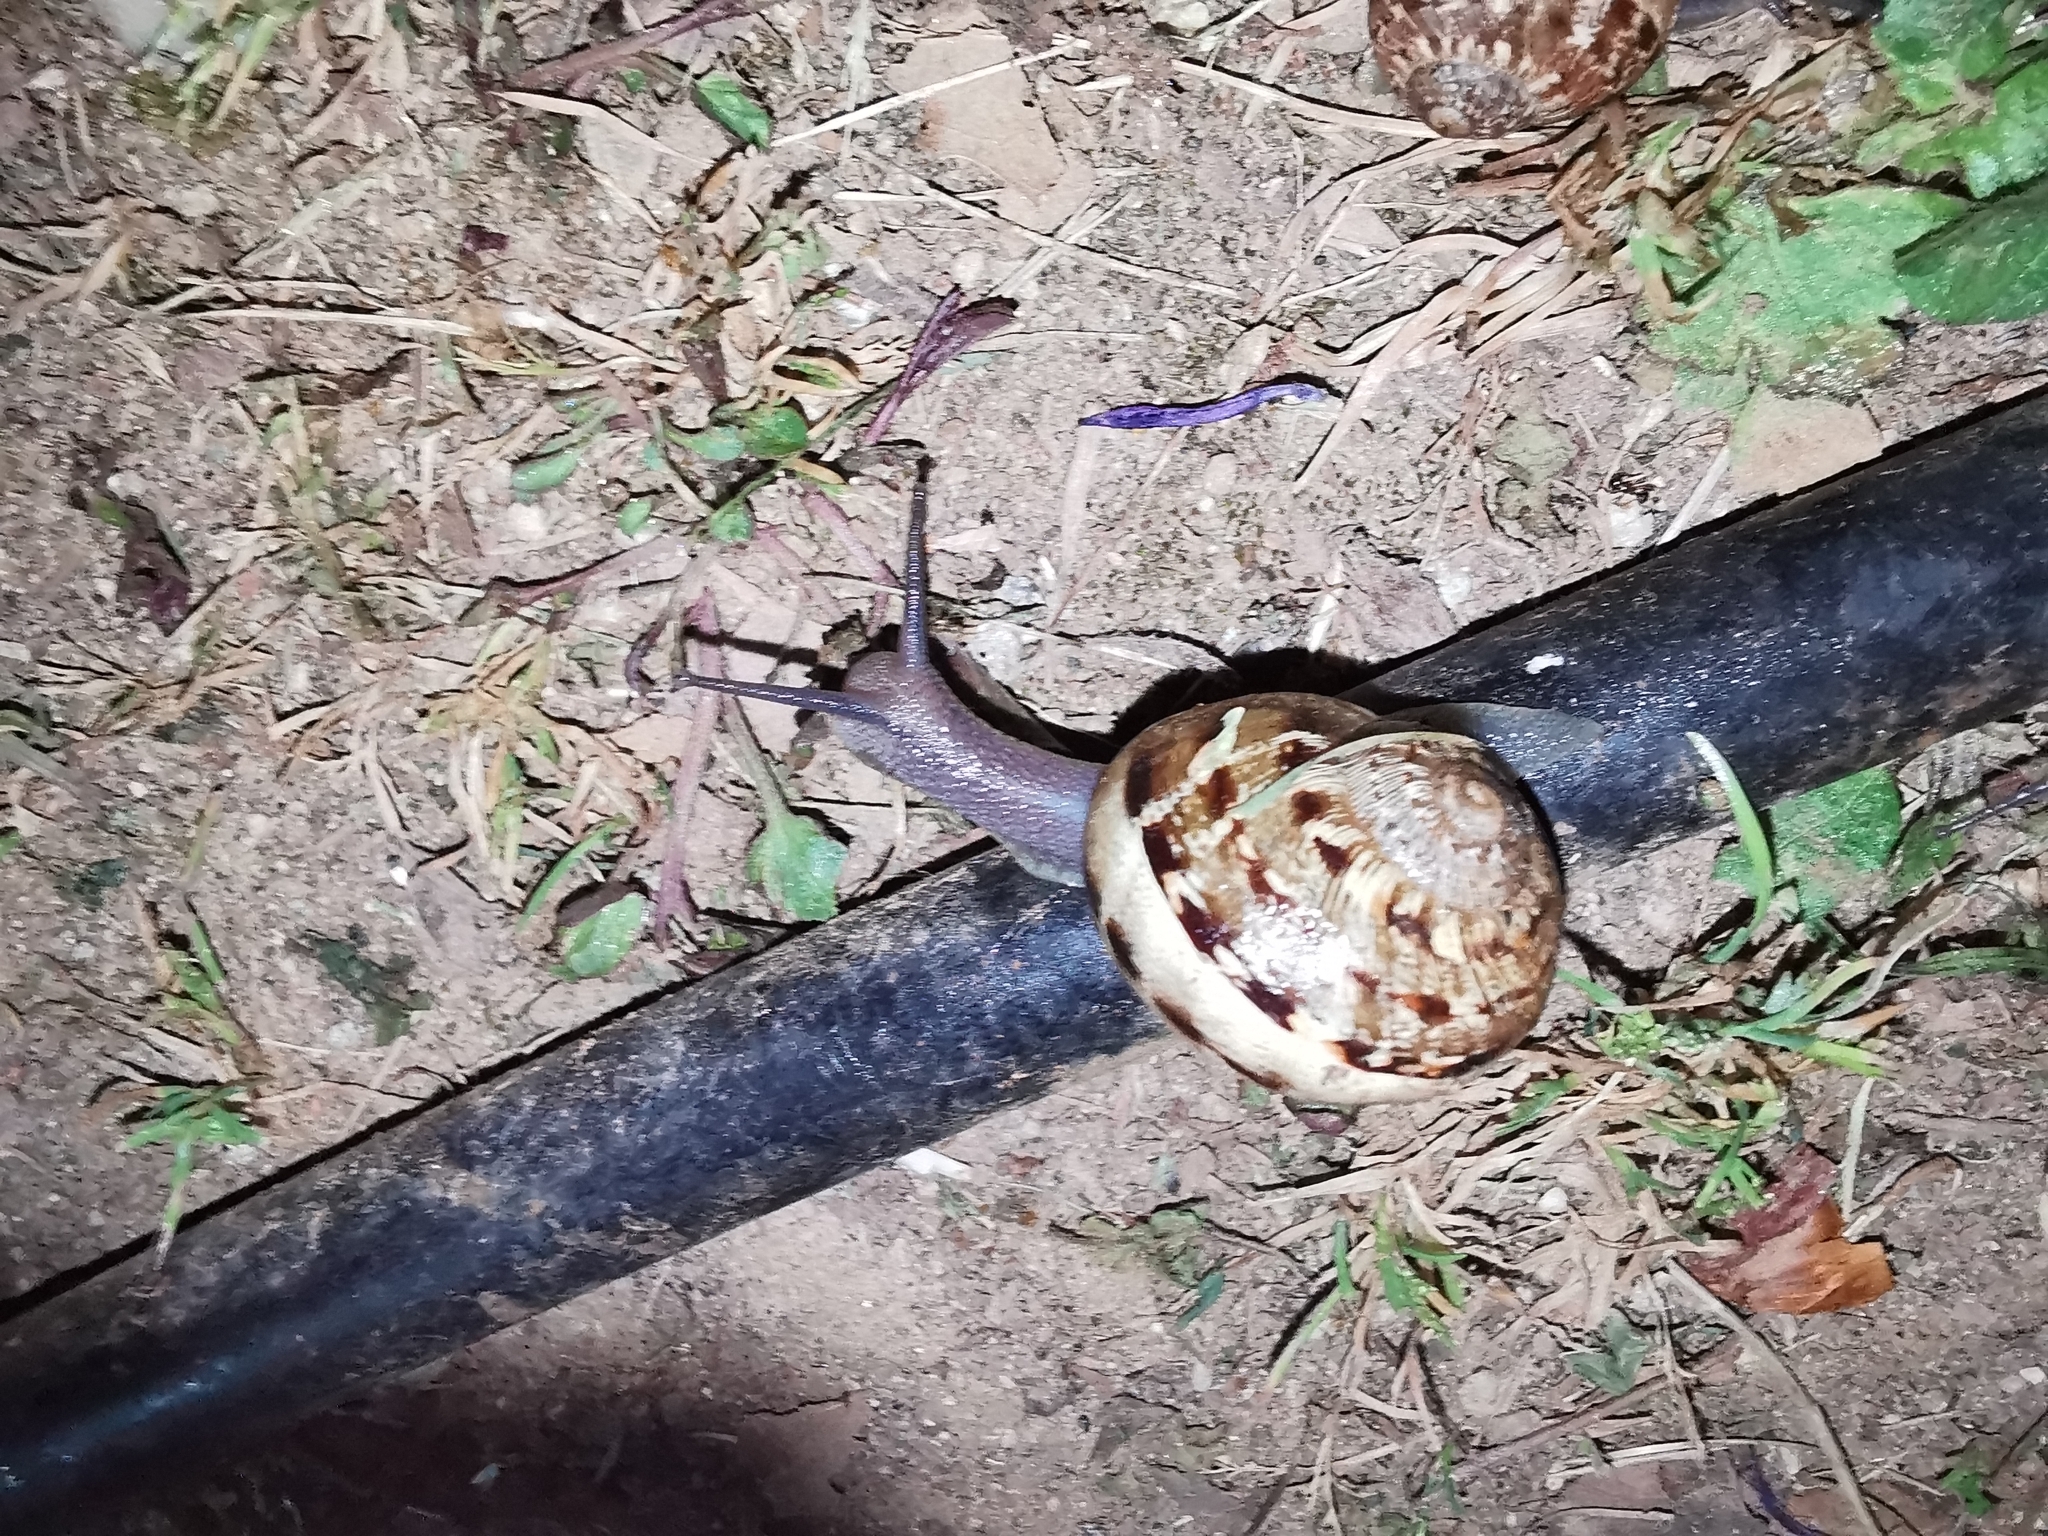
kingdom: Animalia
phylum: Mollusca
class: Gastropoda
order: Stylommatophora
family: Helicidae
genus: Cornu
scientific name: Cornu aspersum
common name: Brown garden snail
